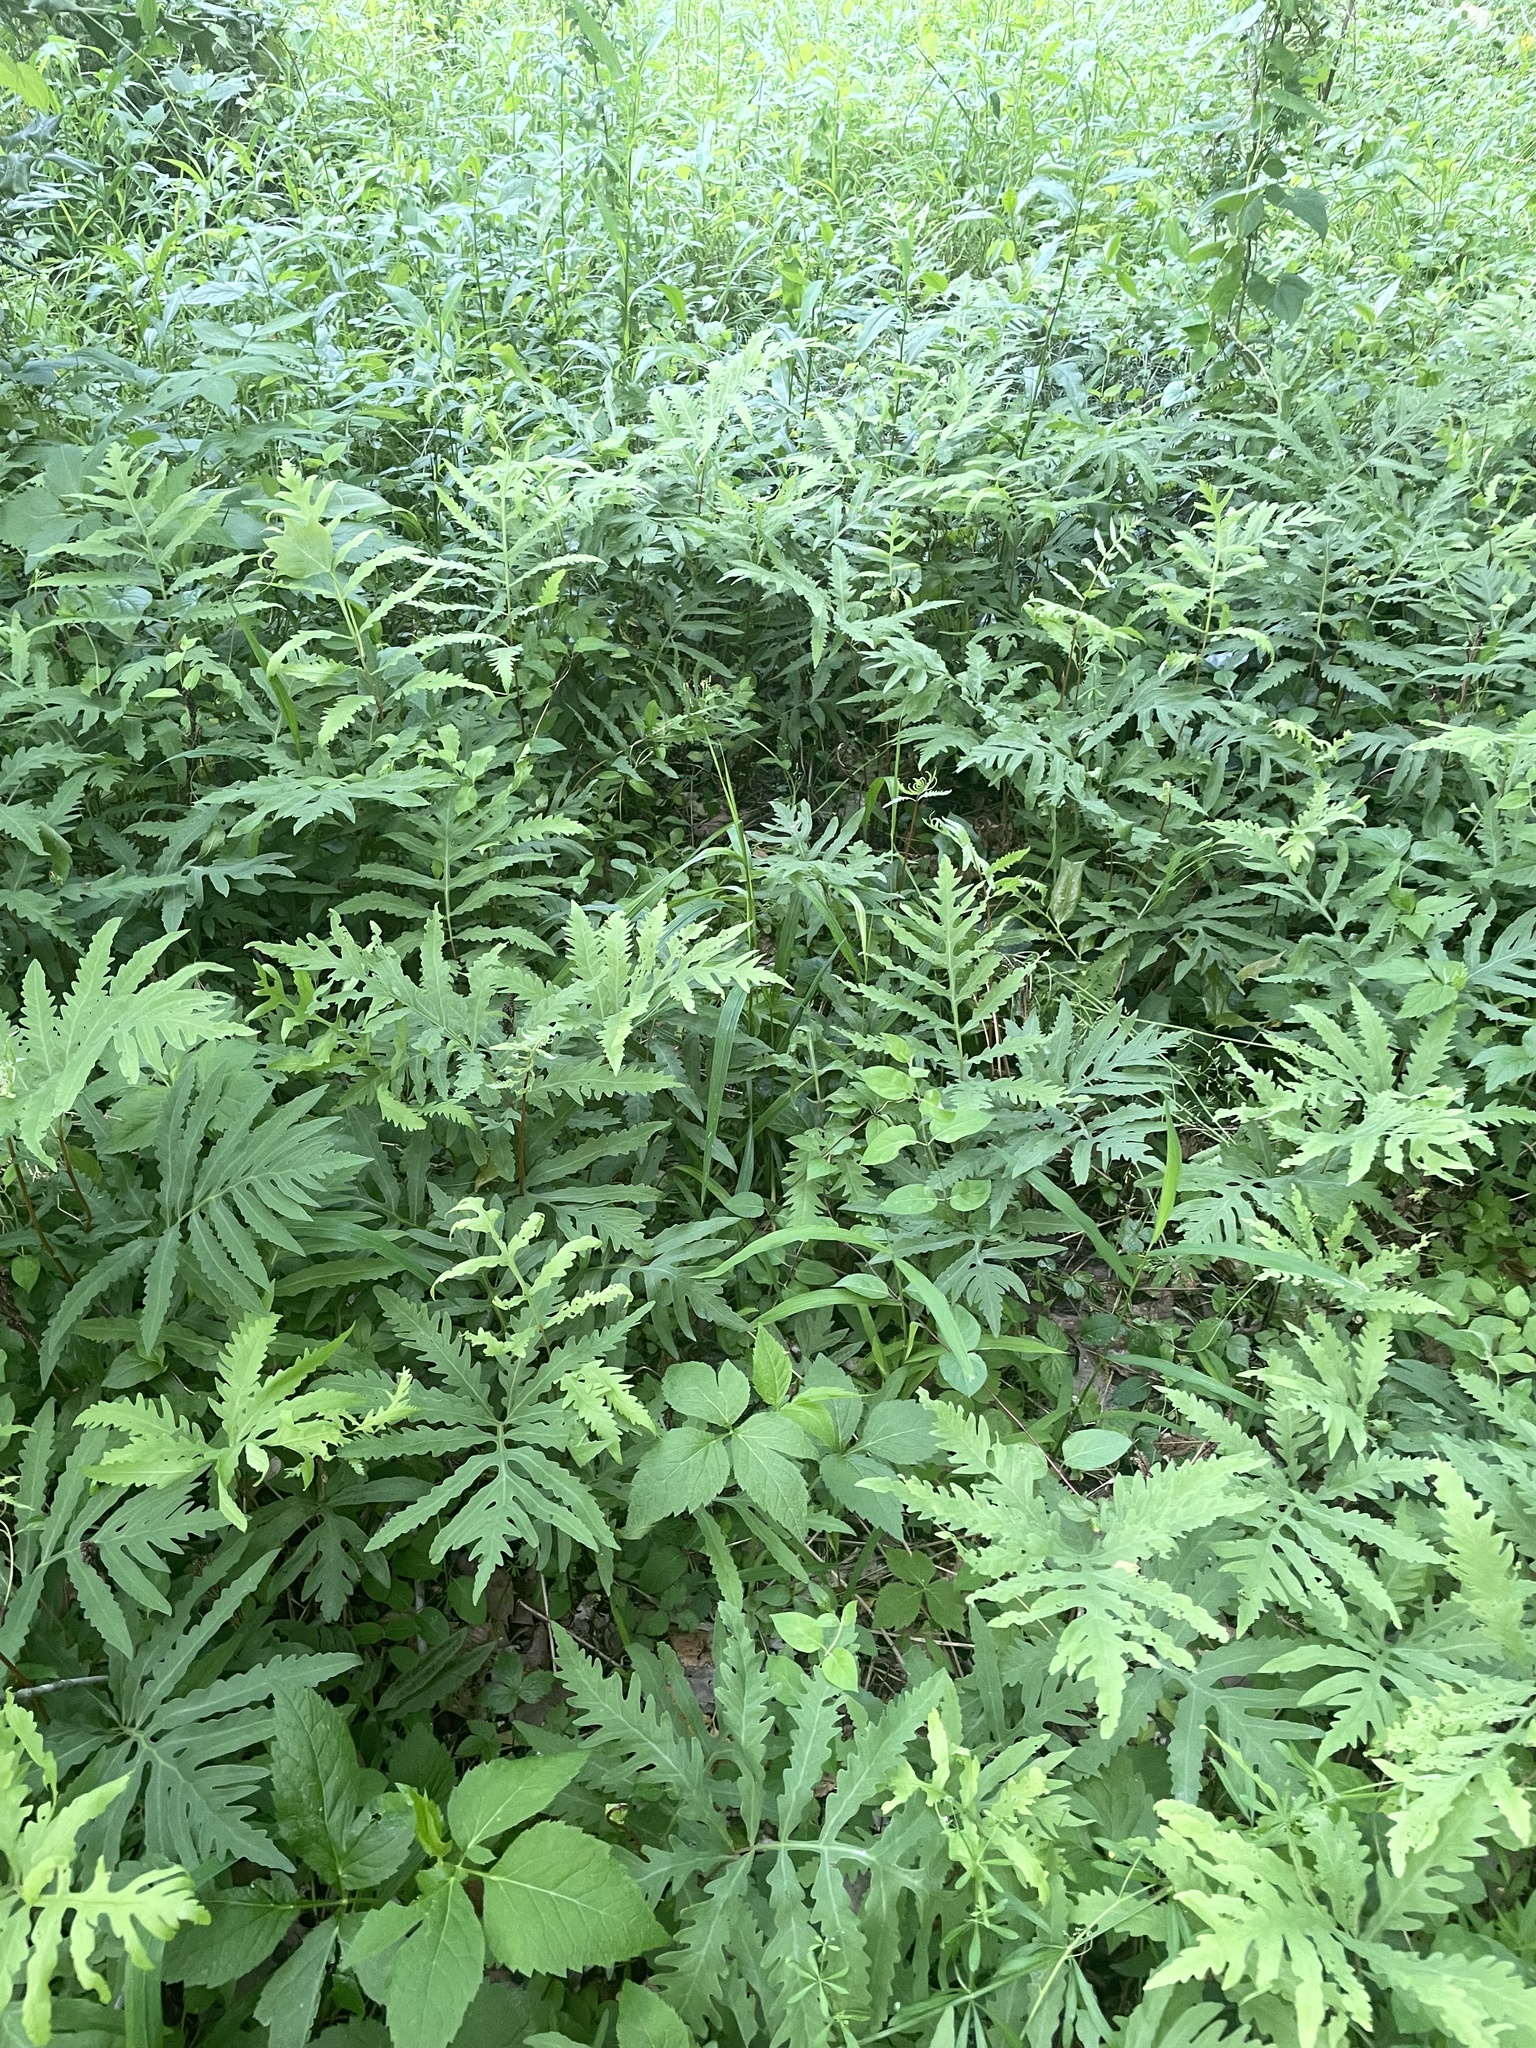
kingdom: Plantae
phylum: Tracheophyta
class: Polypodiopsida
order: Polypodiales
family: Onocleaceae
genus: Onoclea
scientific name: Onoclea sensibilis
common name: Sensitive fern
